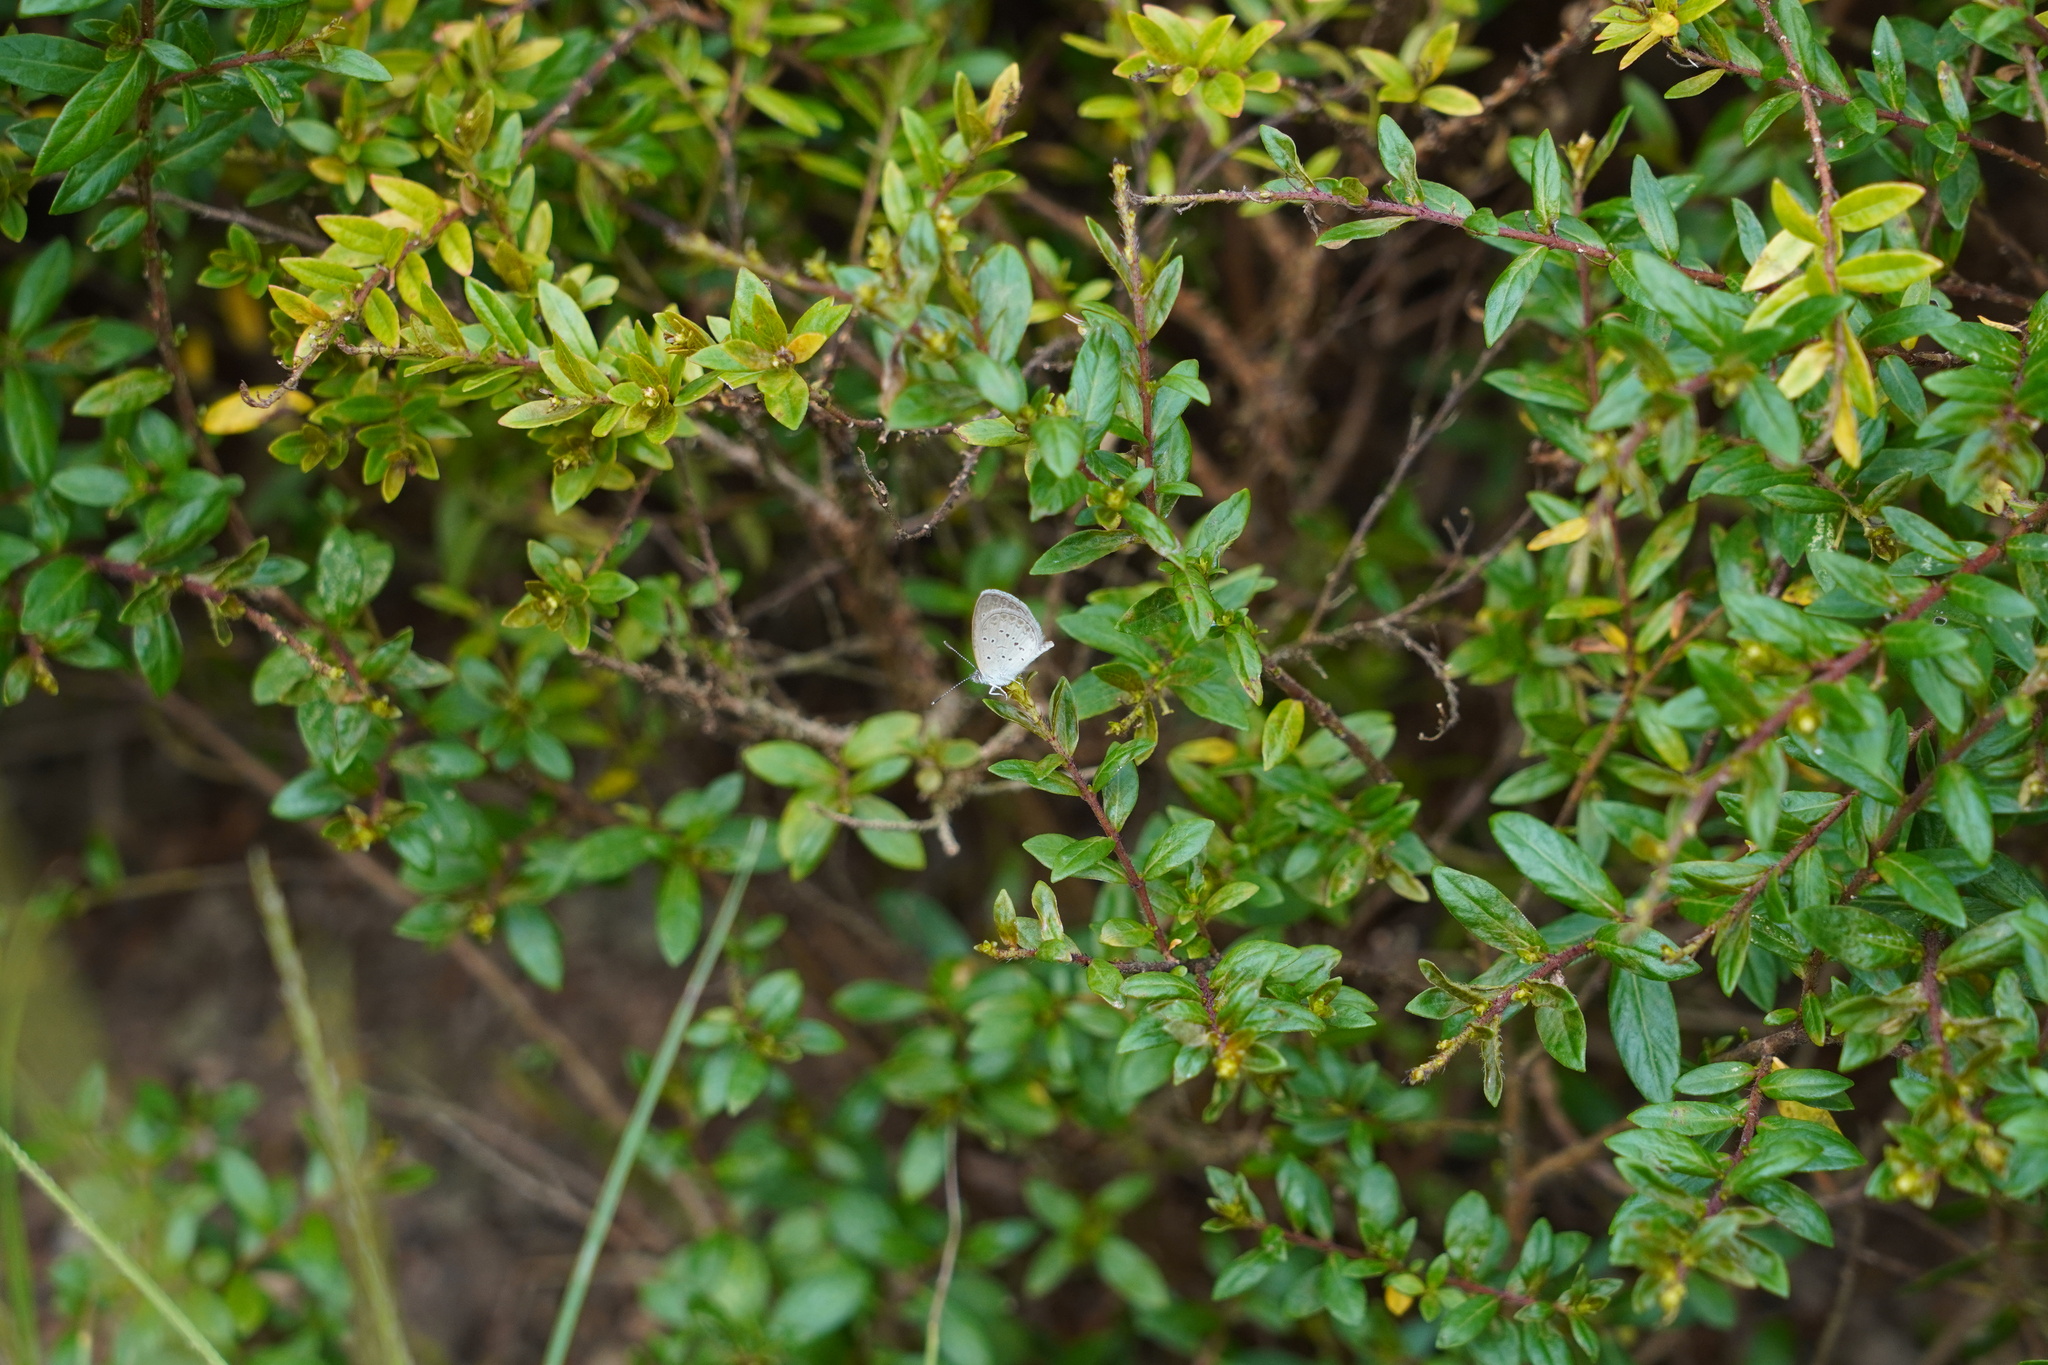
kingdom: Animalia
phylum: Arthropoda
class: Insecta
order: Lepidoptera
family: Lycaenidae
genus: Zizina
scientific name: Zizina otis
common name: Lesser grass blue
